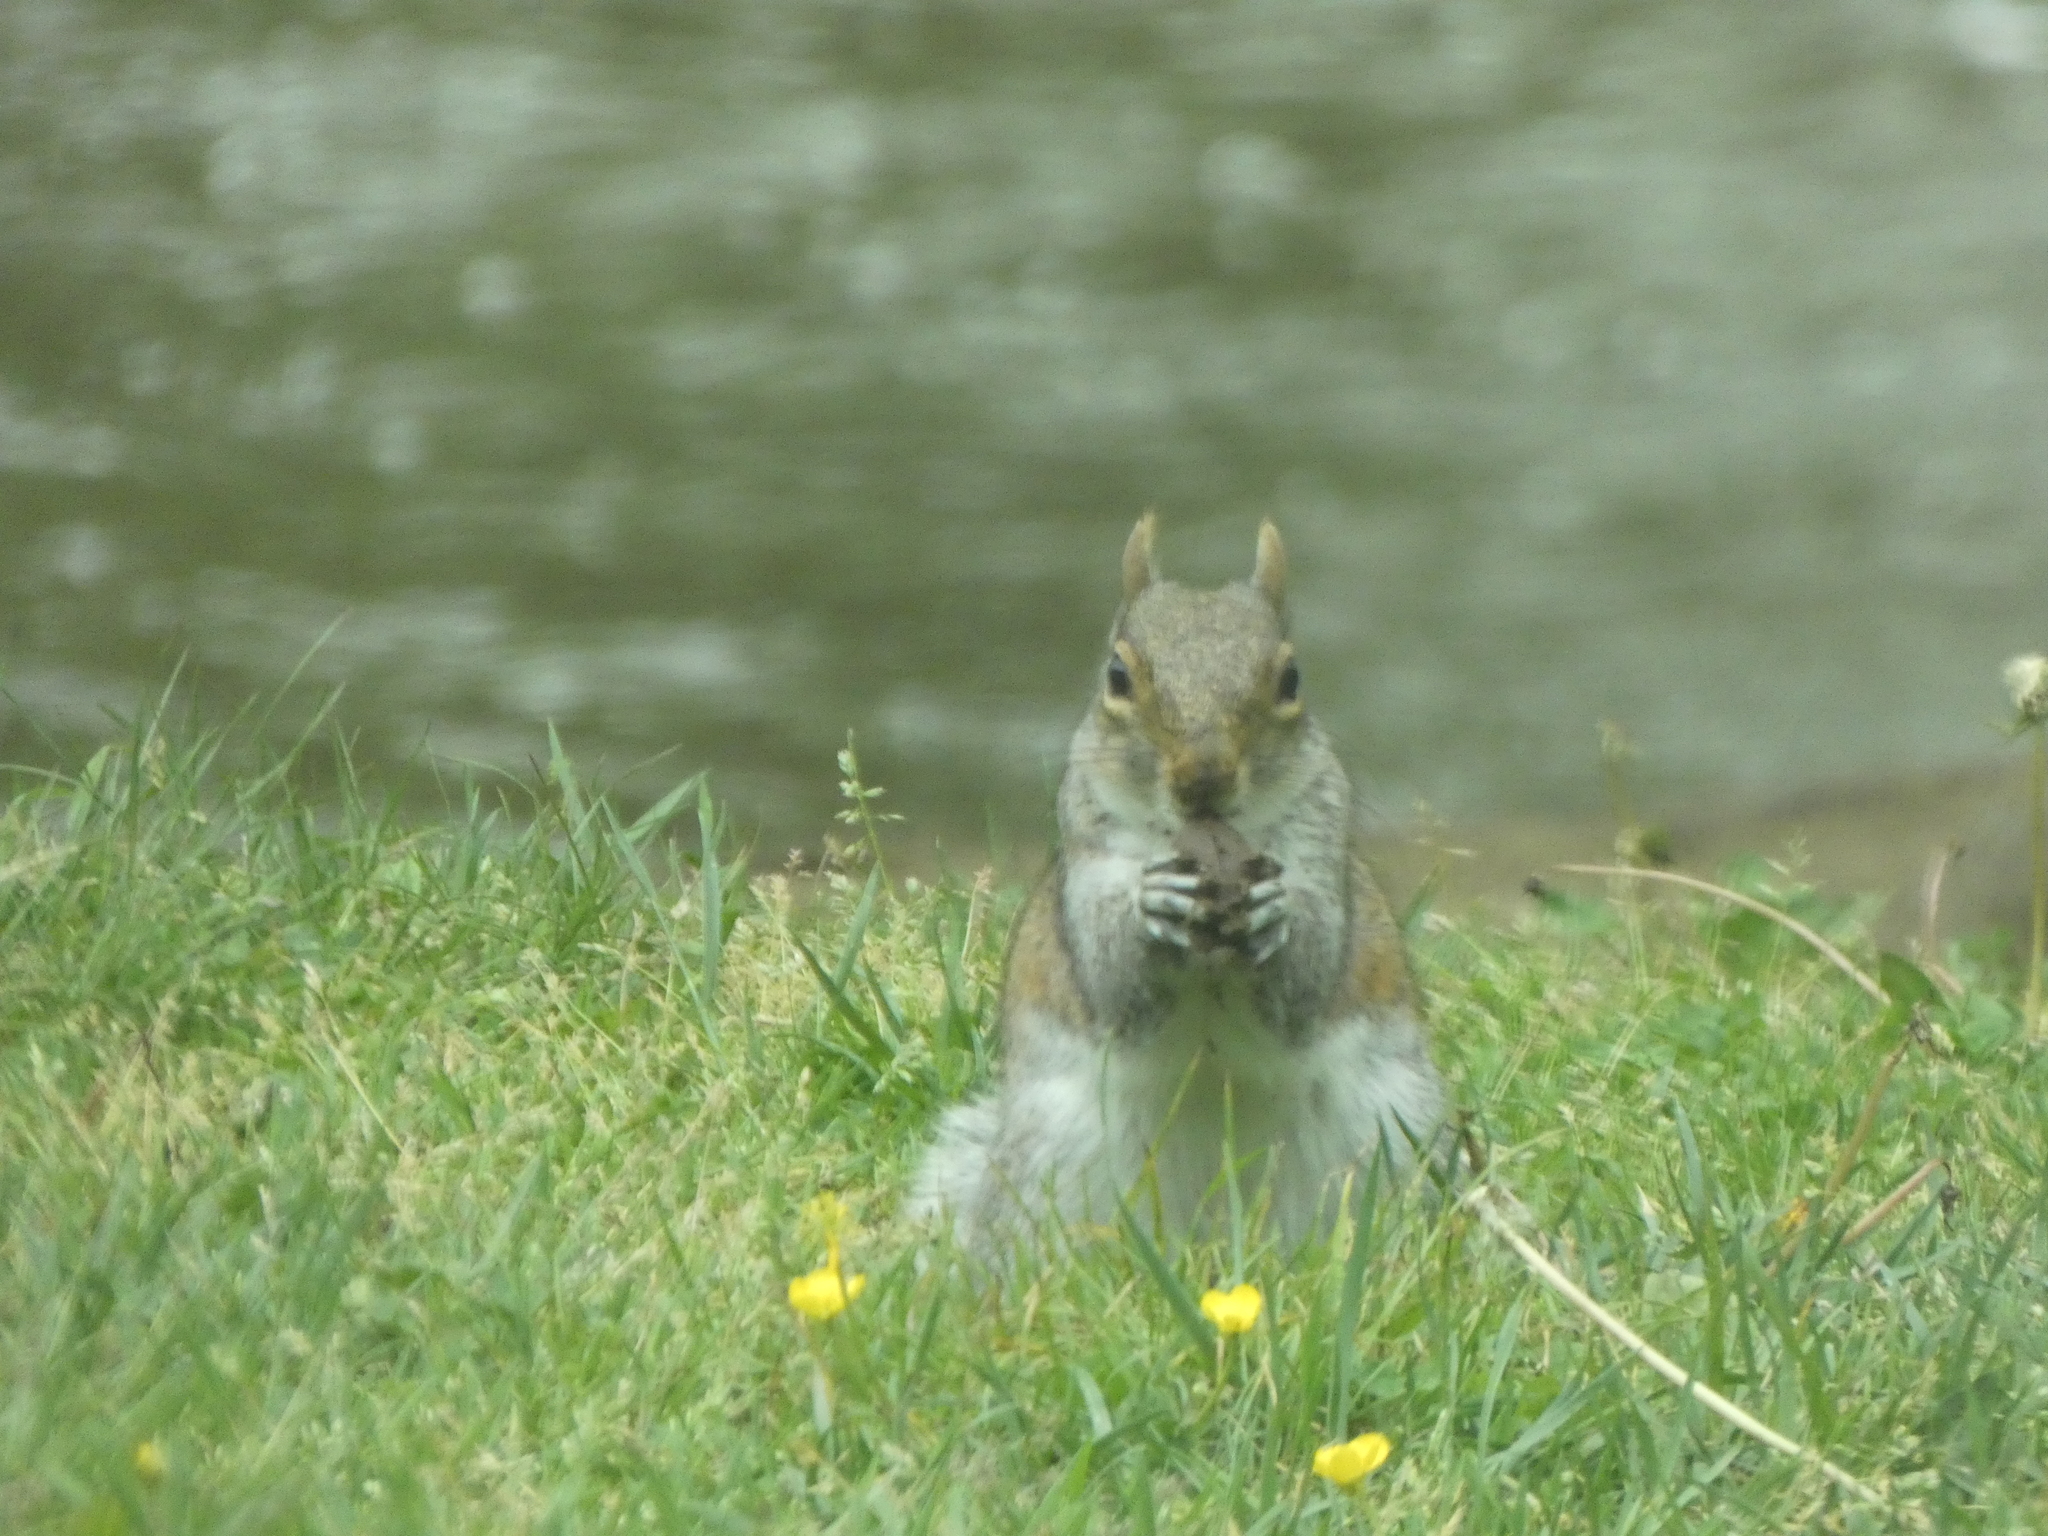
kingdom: Animalia
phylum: Chordata
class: Mammalia
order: Rodentia
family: Sciuridae
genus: Sciurus
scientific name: Sciurus carolinensis
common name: Eastern gray squirrel
